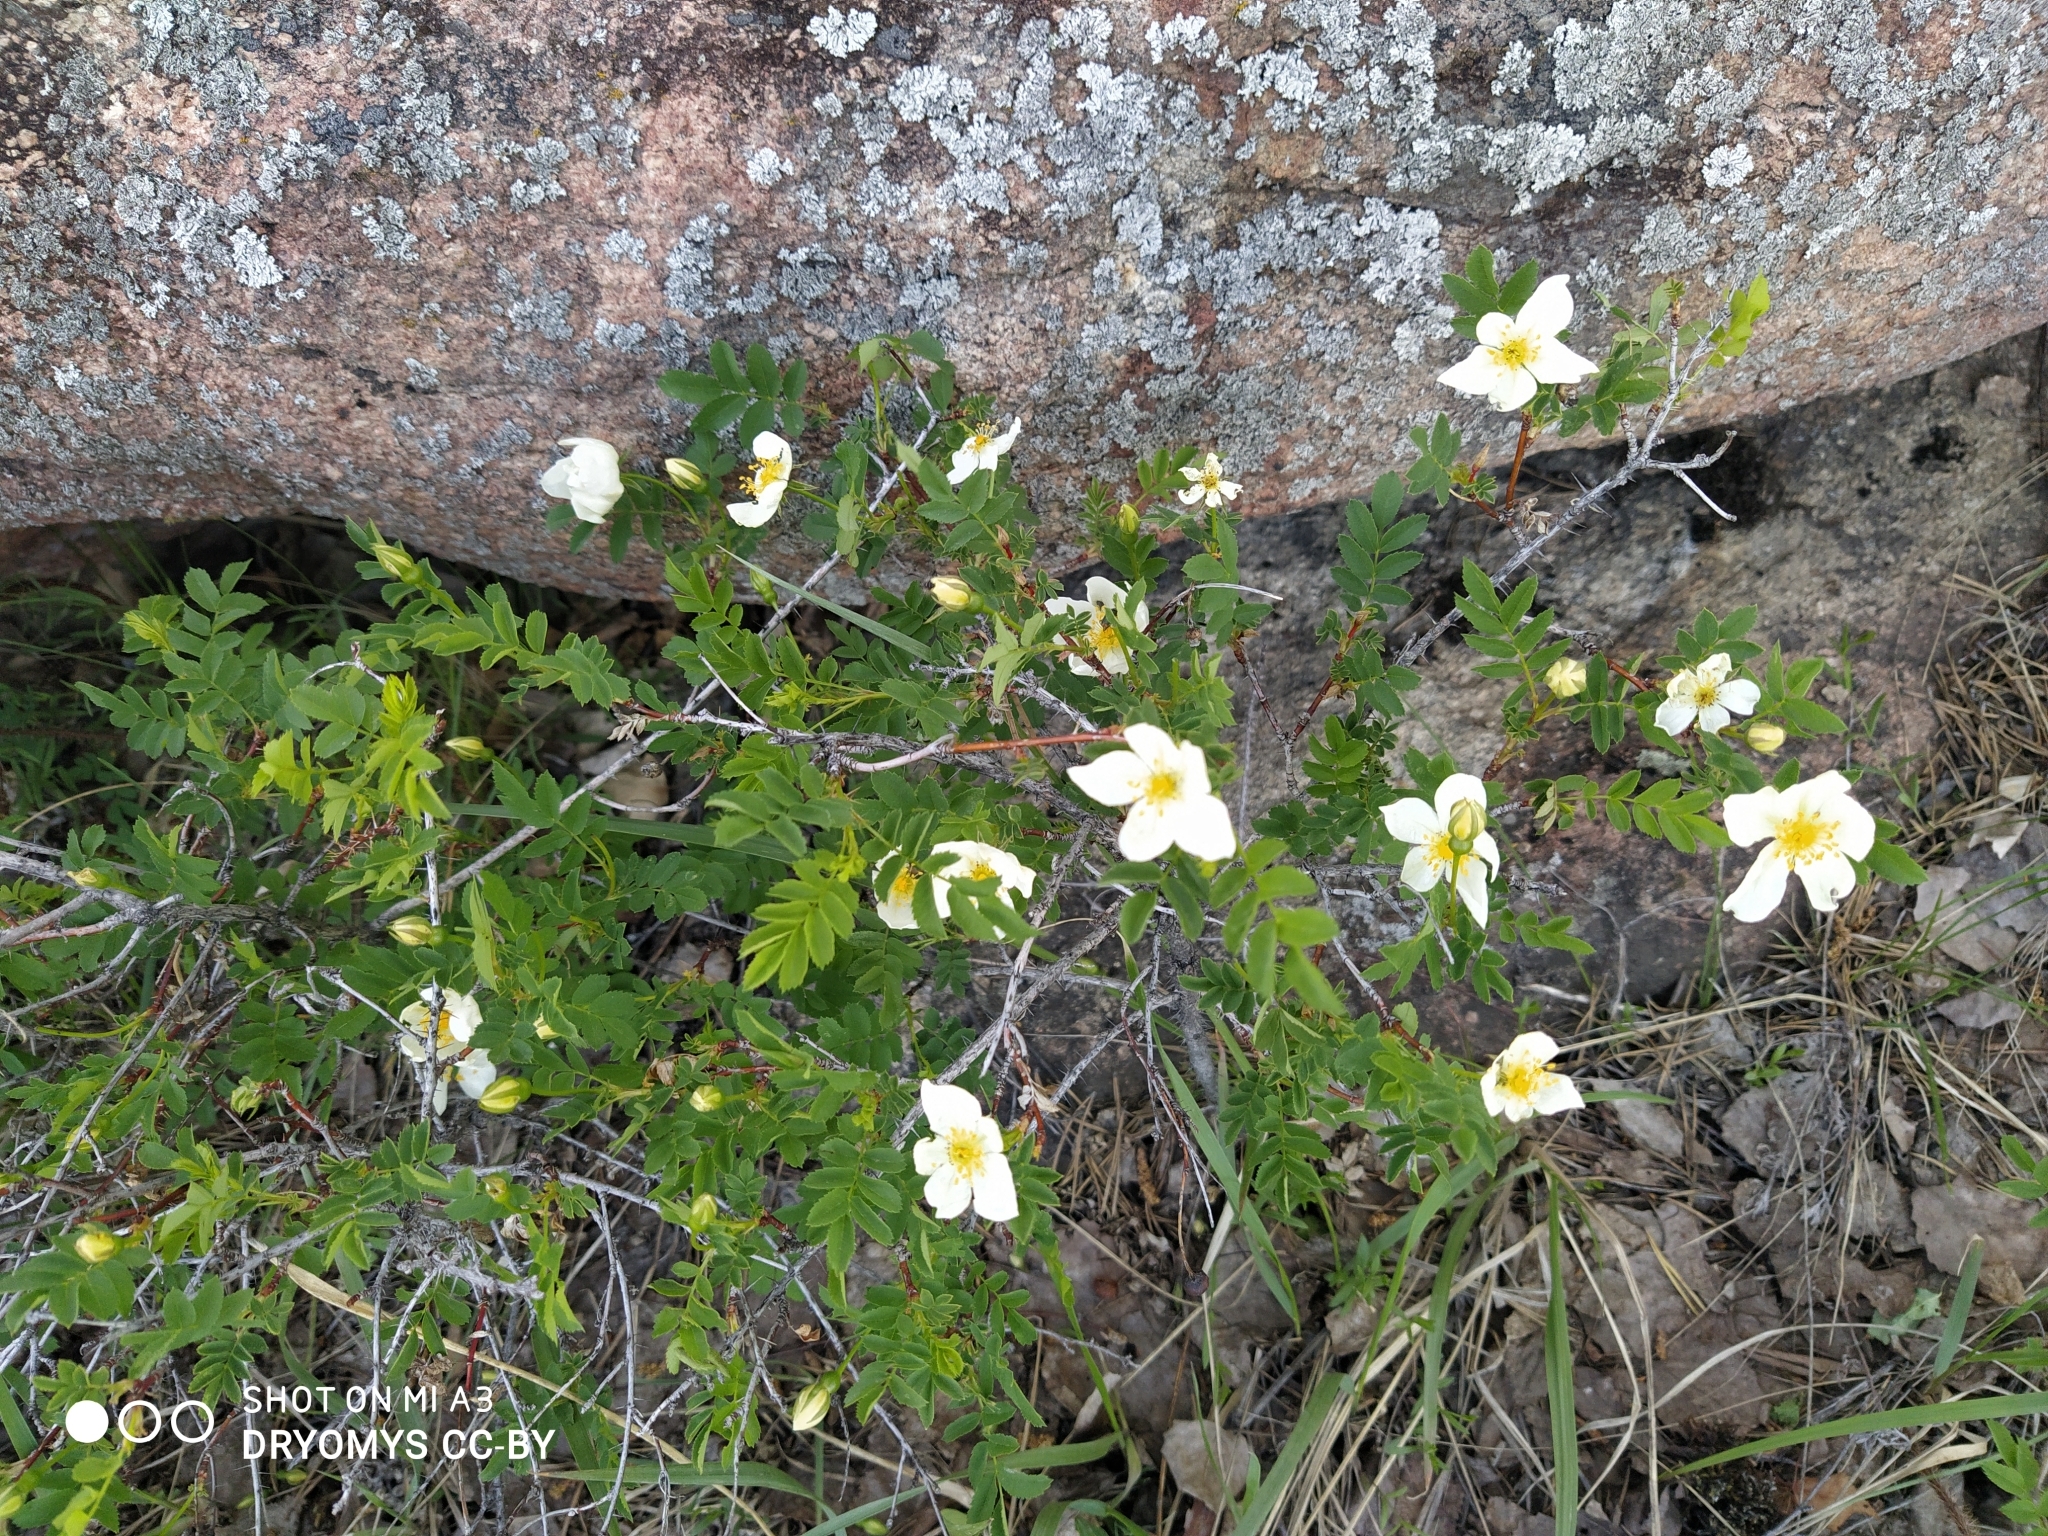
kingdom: Plantae
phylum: Tracheophyta
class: Magnoliopsida
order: Rosales
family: Rosaceae
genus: Rosa
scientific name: Rosa spinosissima
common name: Burnet rose
